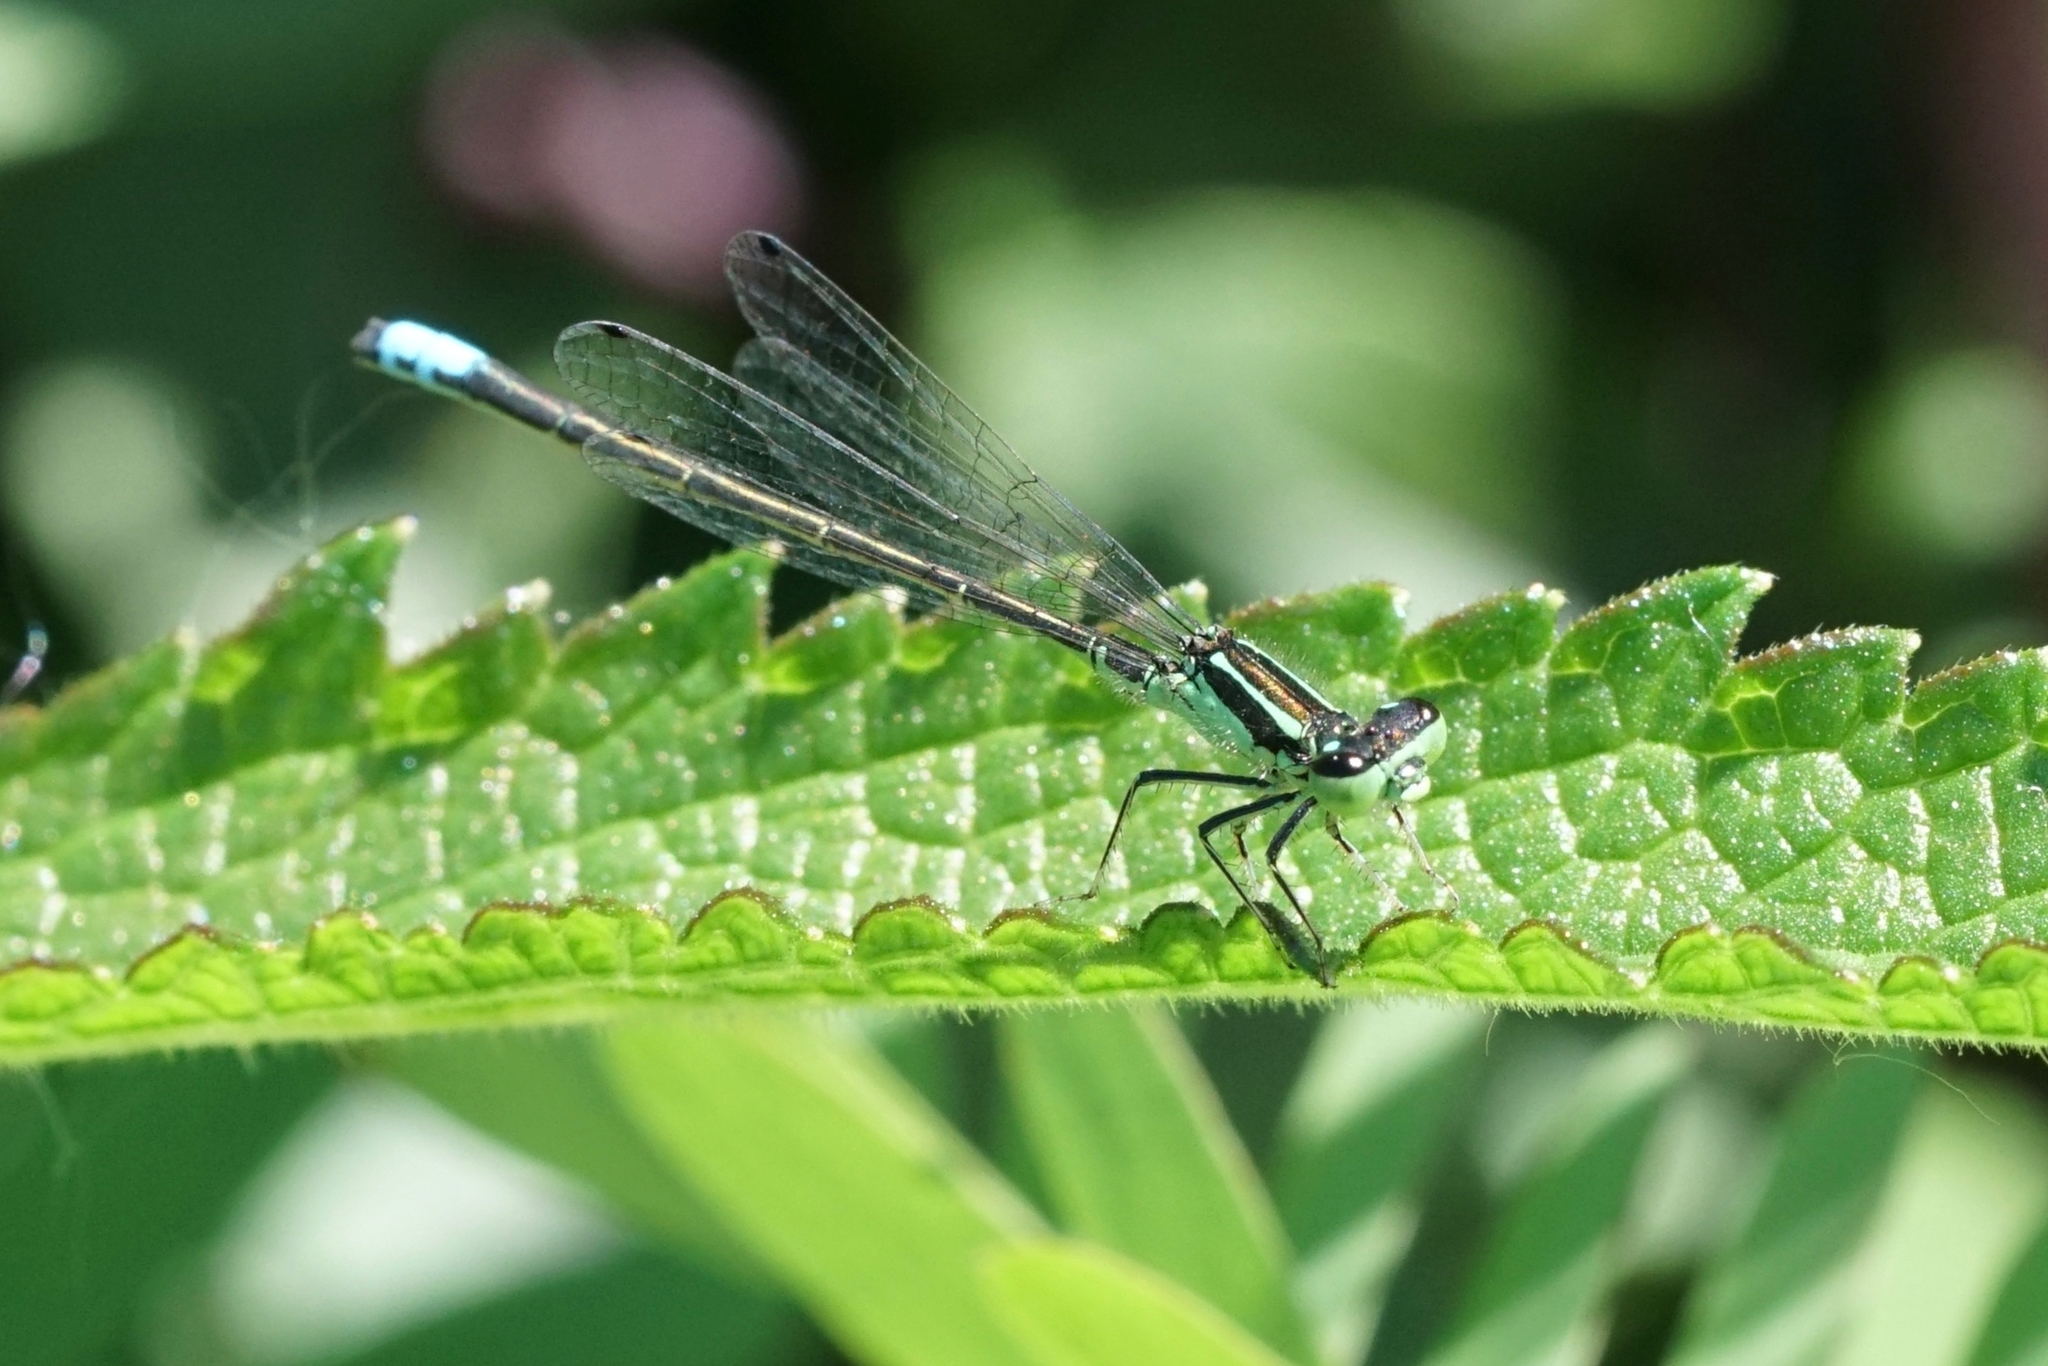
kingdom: Animalia
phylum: Arthropoda
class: Insecta
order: Odonata
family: Coenagrionidae
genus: Ischnura
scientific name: Ischnura verticalis
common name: Eastern forktail
